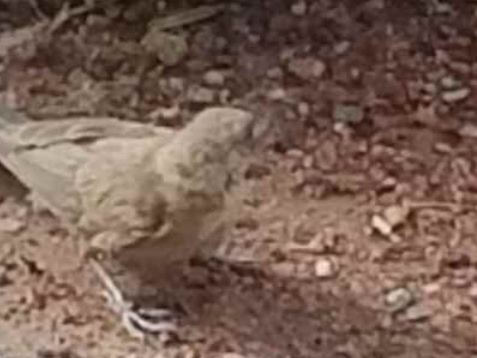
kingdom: Animalia
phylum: Chordata
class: Aves
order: Passeriformes
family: Icteridae
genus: Molothrus
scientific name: Molothrus ater
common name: Brown-headed cowbird
